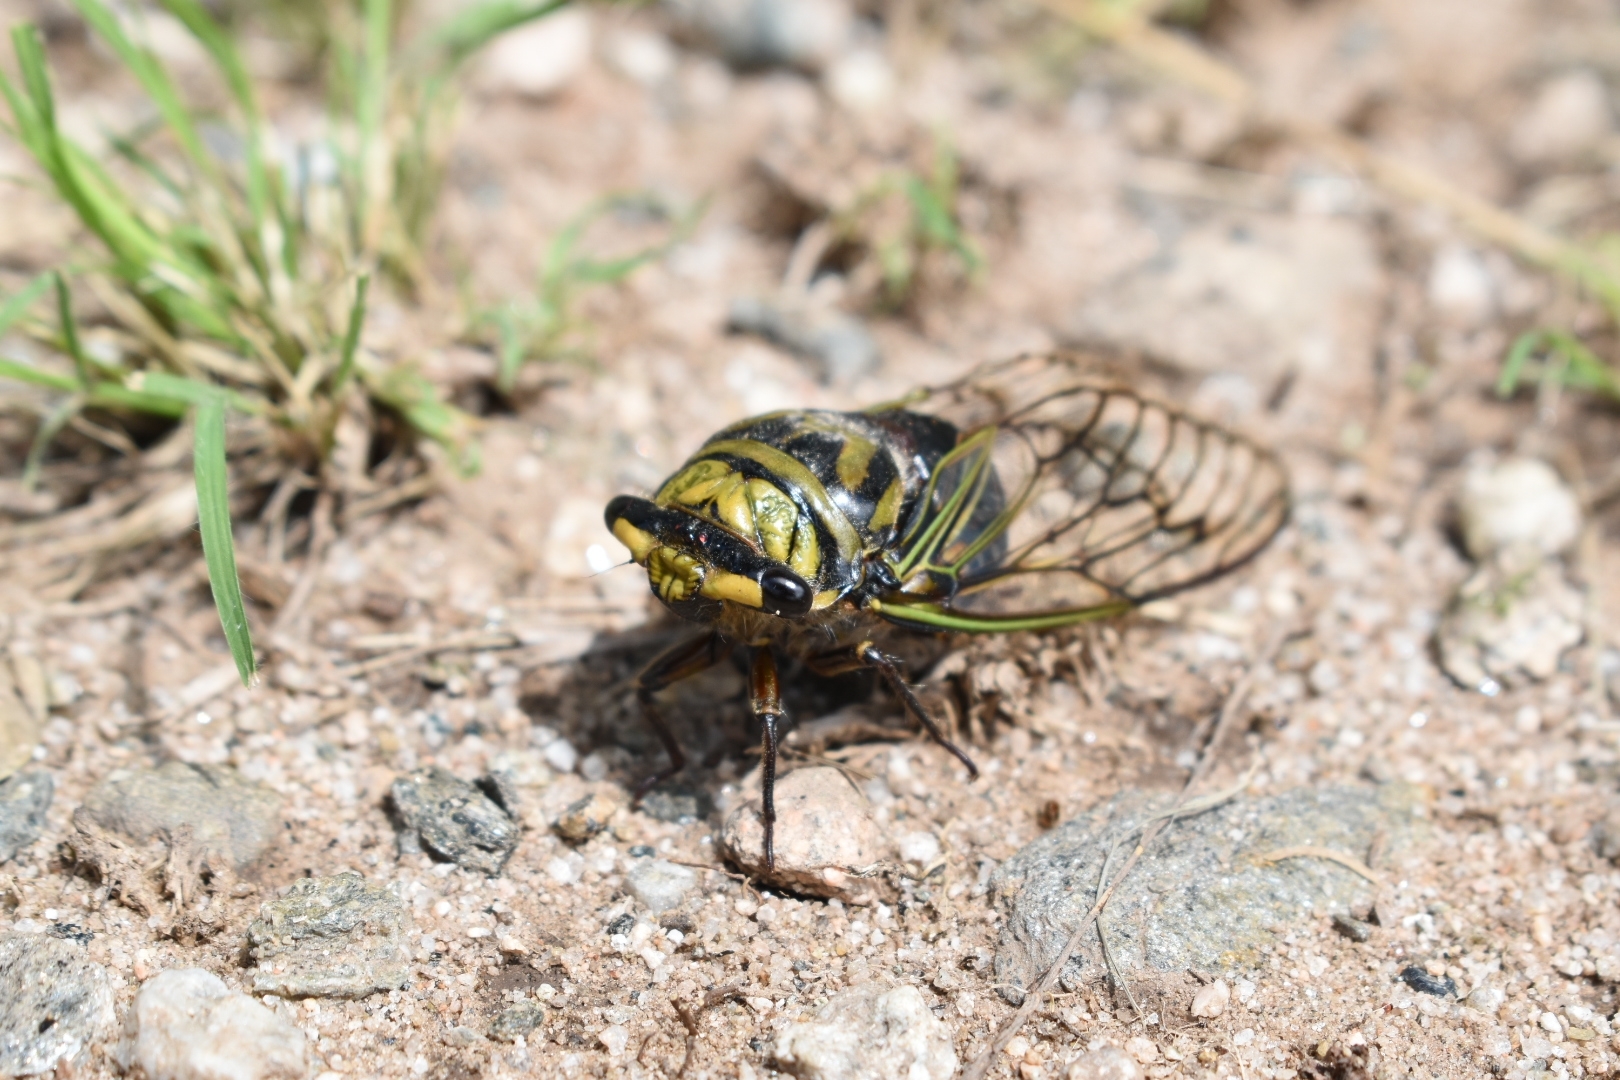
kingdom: Animalia
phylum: Arthropoda
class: Insecta
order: Hemiptera
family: Cicadidae
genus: Guyalna
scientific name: Guyalna bonaerensis
